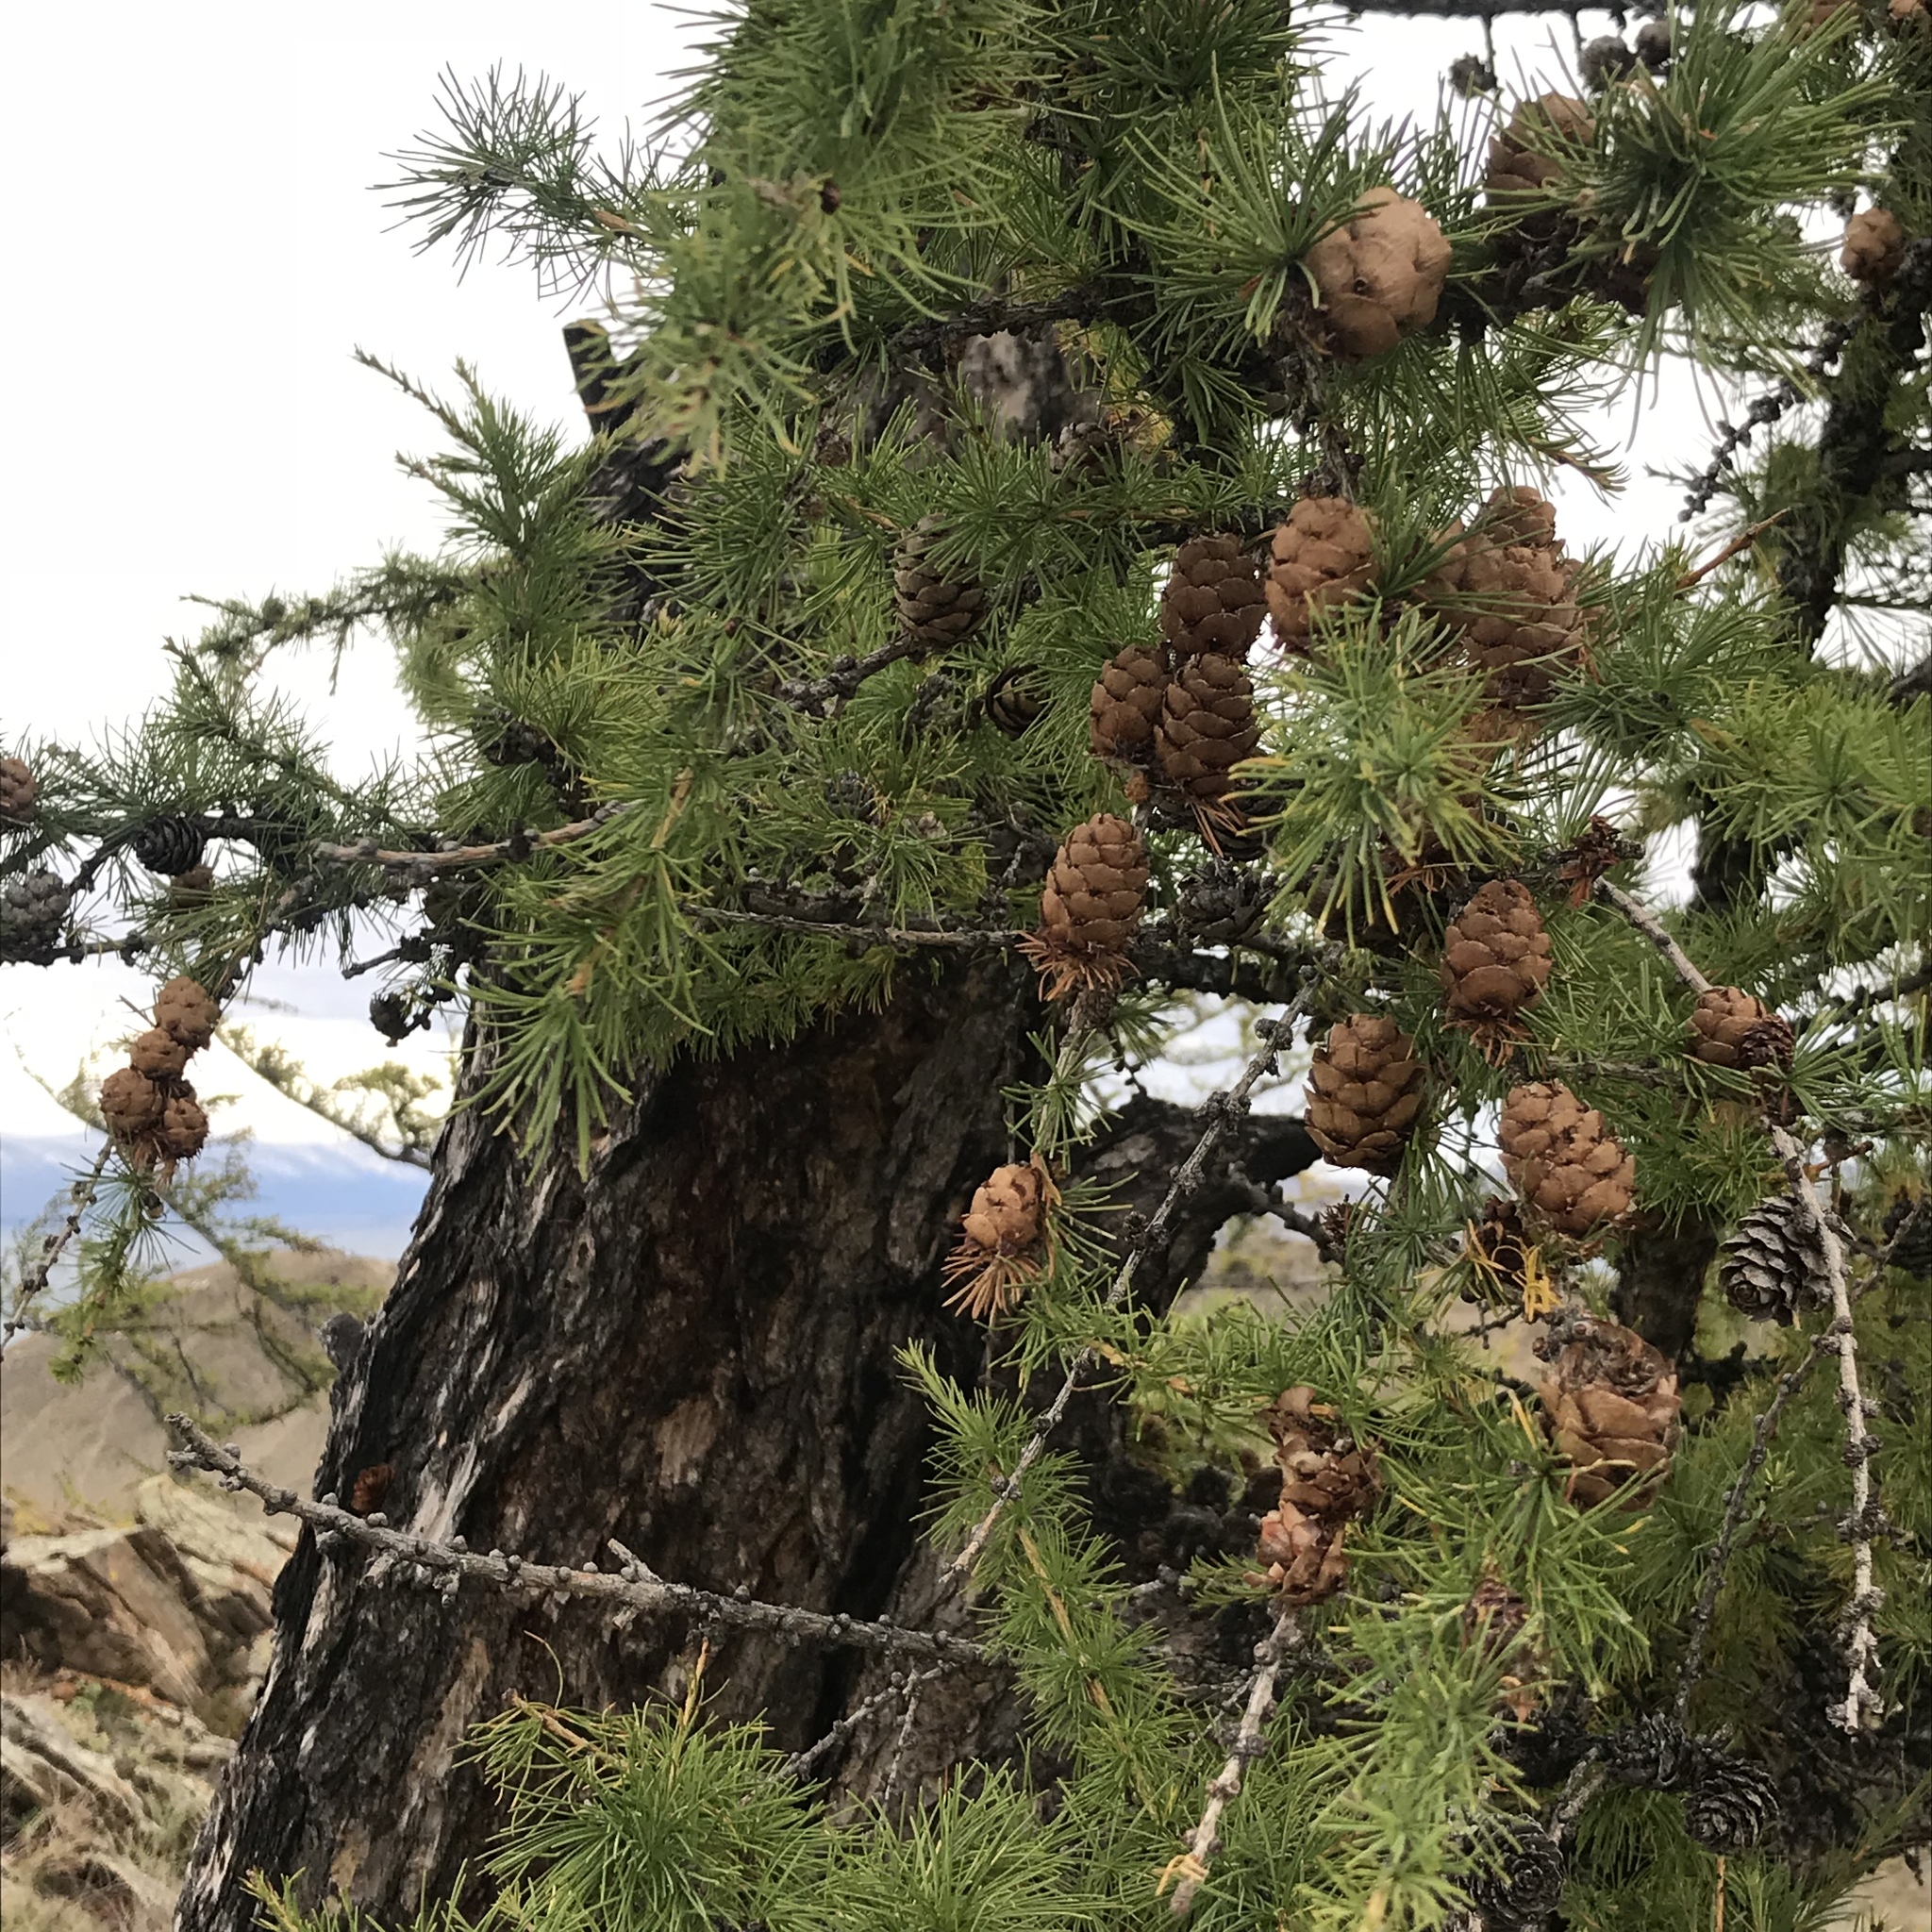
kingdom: Plantae
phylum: Tracheophyta
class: Pinopsida
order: Pinales
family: Pinaceae
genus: Larix
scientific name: Larix sibirica
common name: Siberian larch
